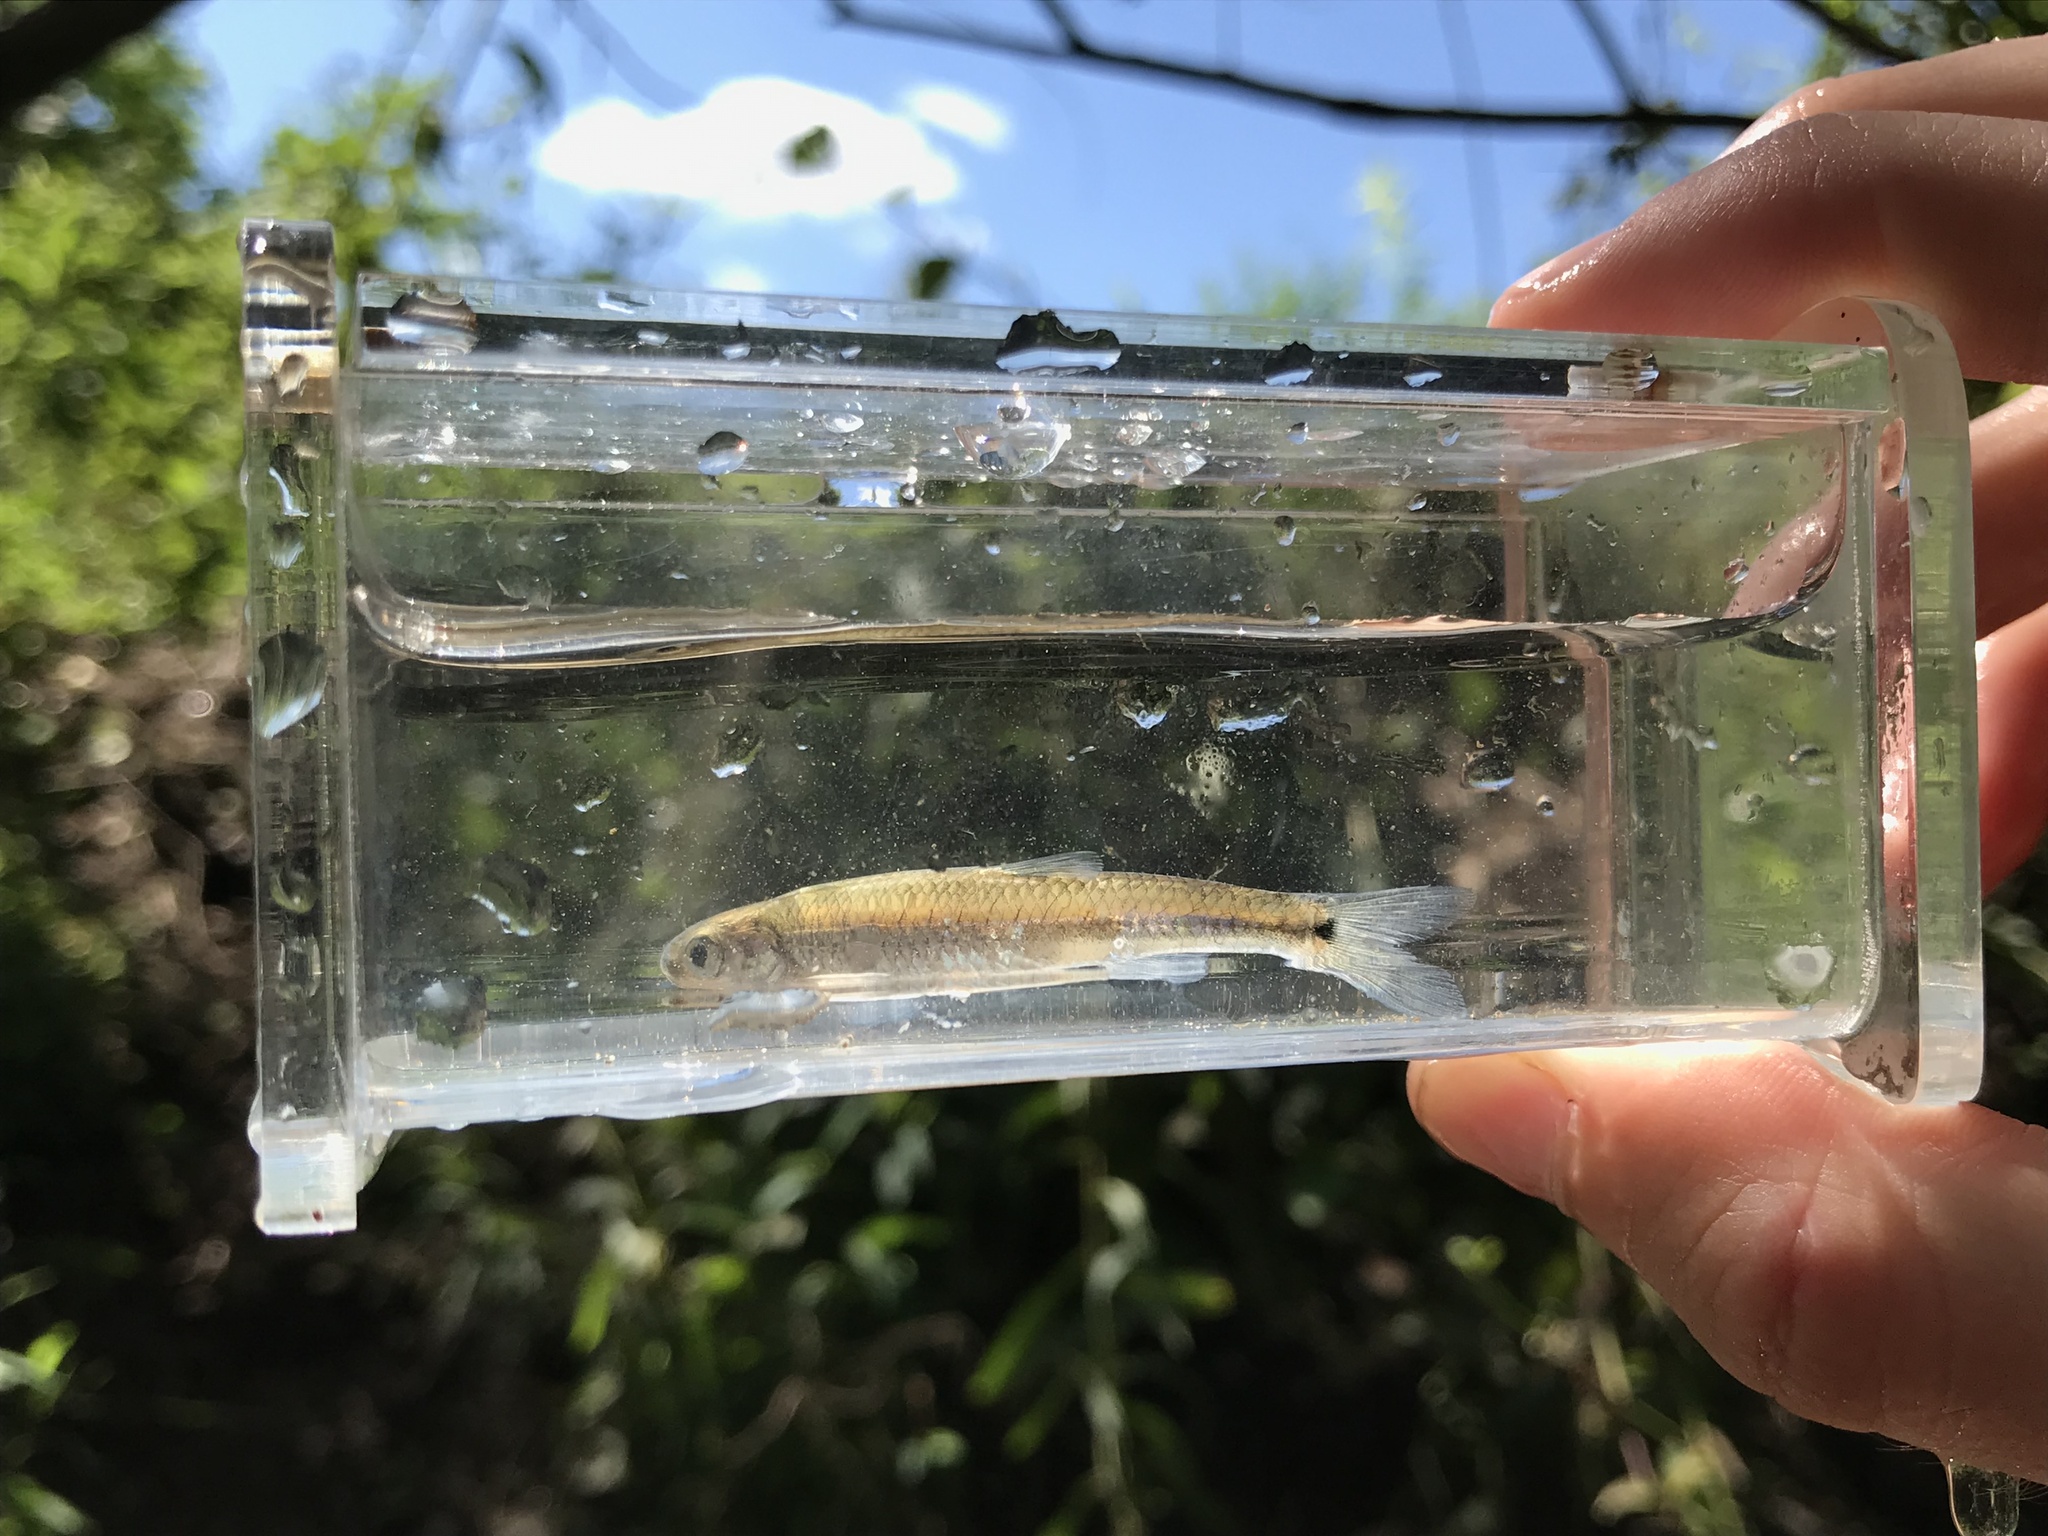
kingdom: Animalia
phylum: Chordata
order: Cypriniformes
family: Cyprinidae
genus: Notropis
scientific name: Notropis
